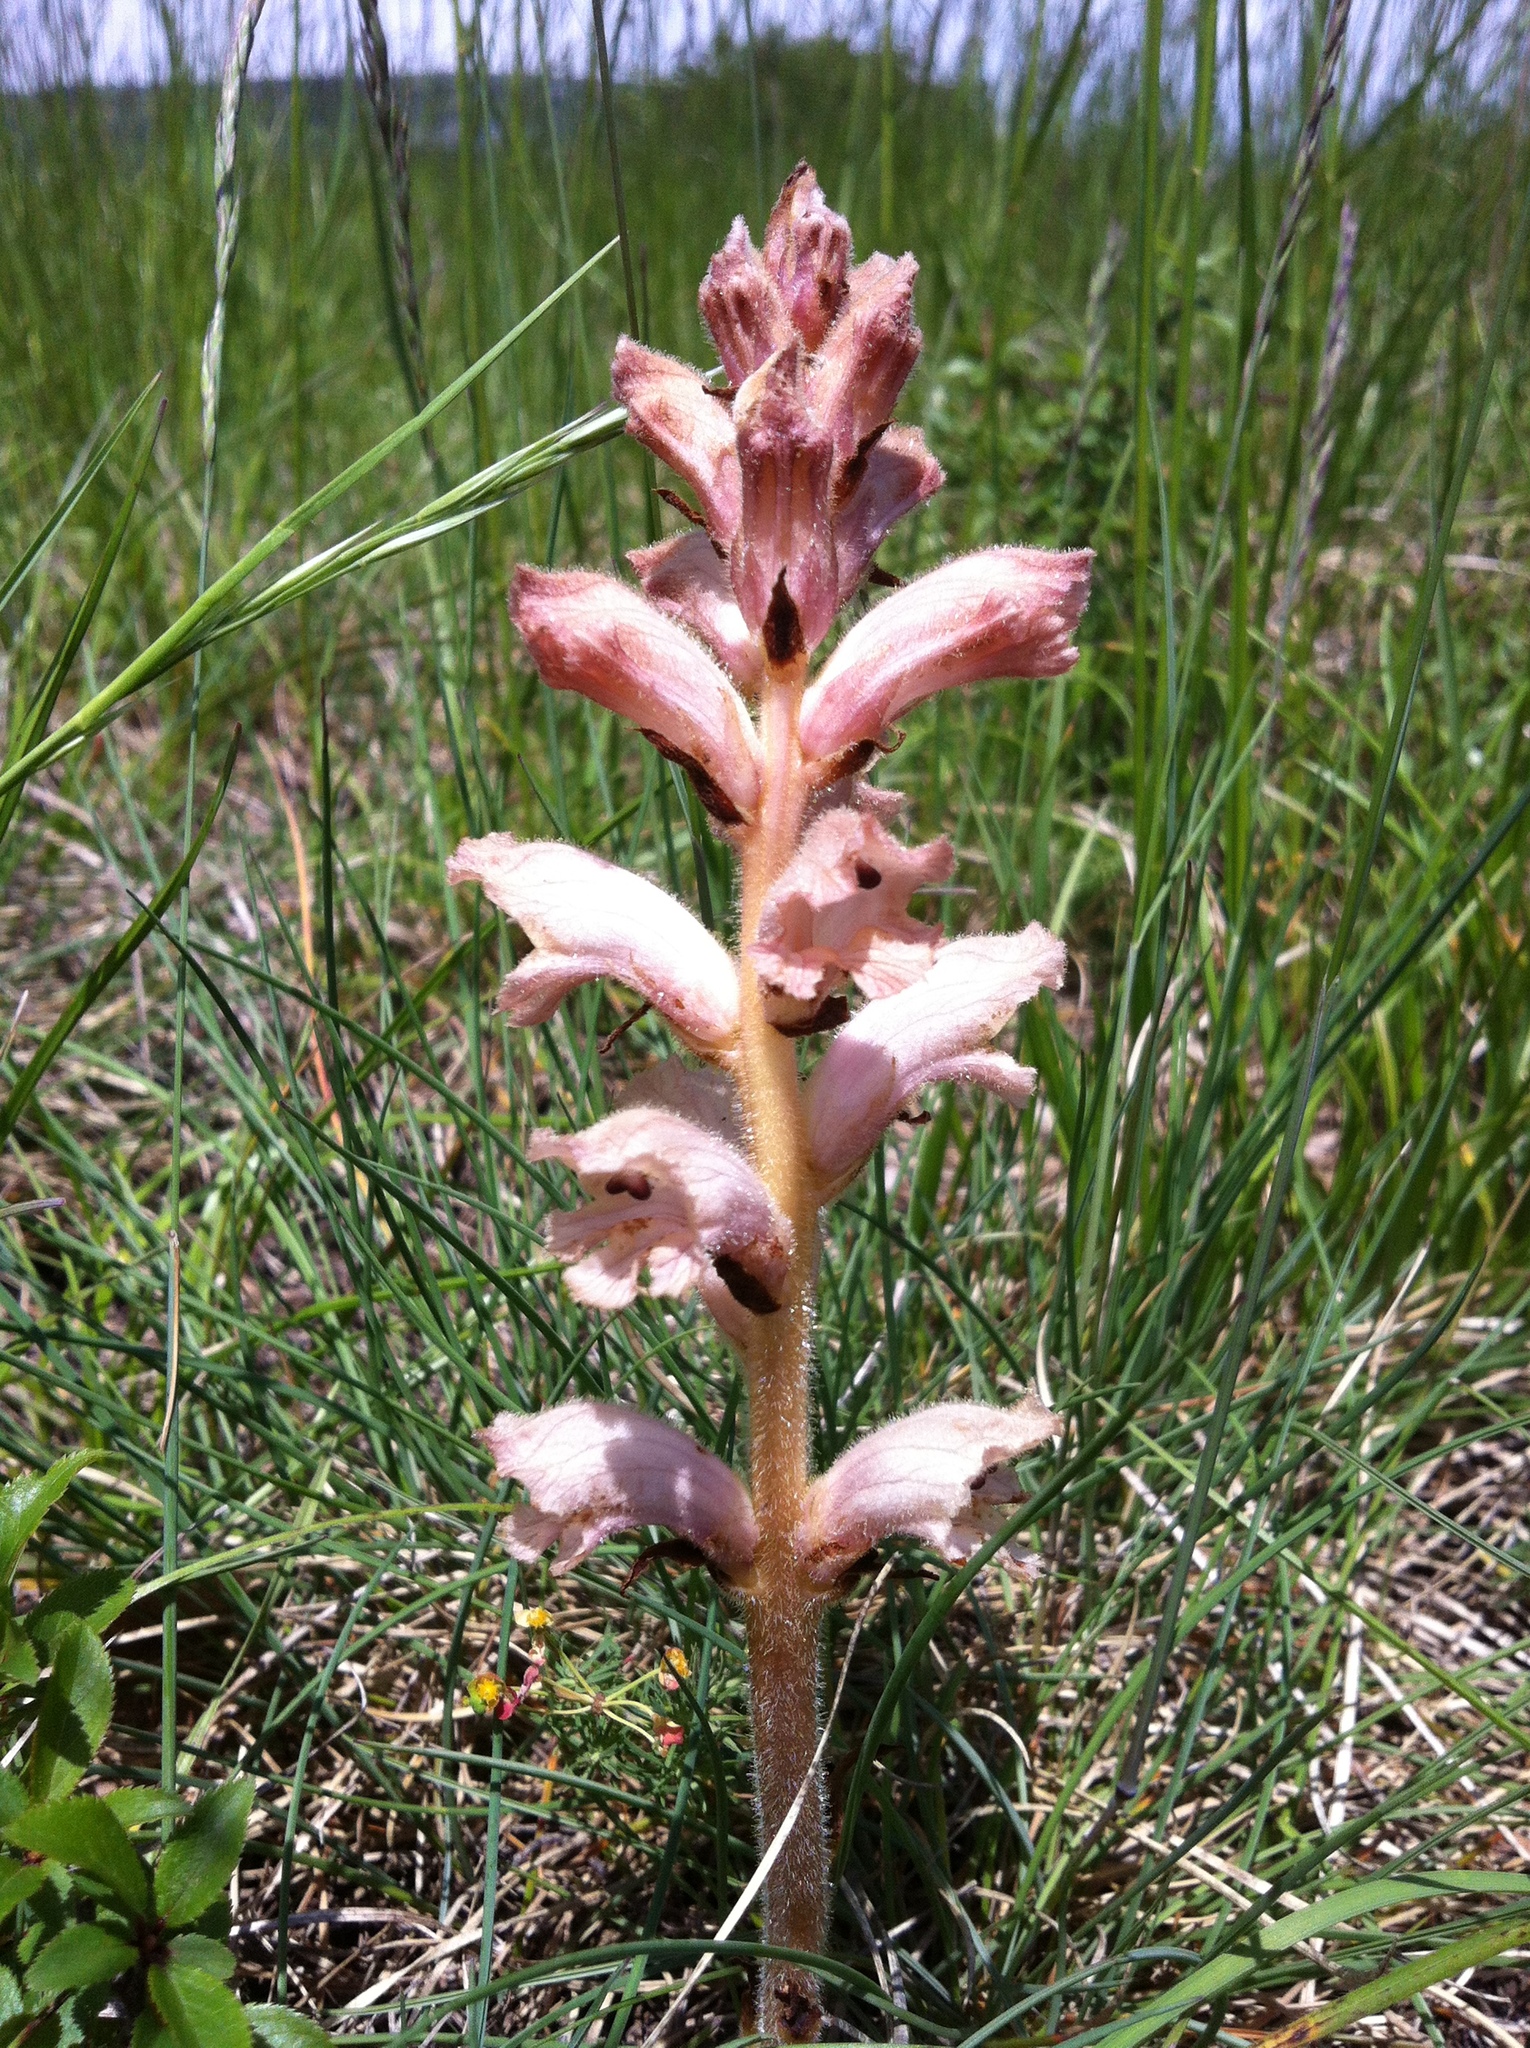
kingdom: Plantae
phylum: Tracheophyta
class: Magnoliopsida
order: Lamiales
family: Orobanchaceae
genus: Orobanche
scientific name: Orobanche caryophyllacea
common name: Bedstraw broomrape
